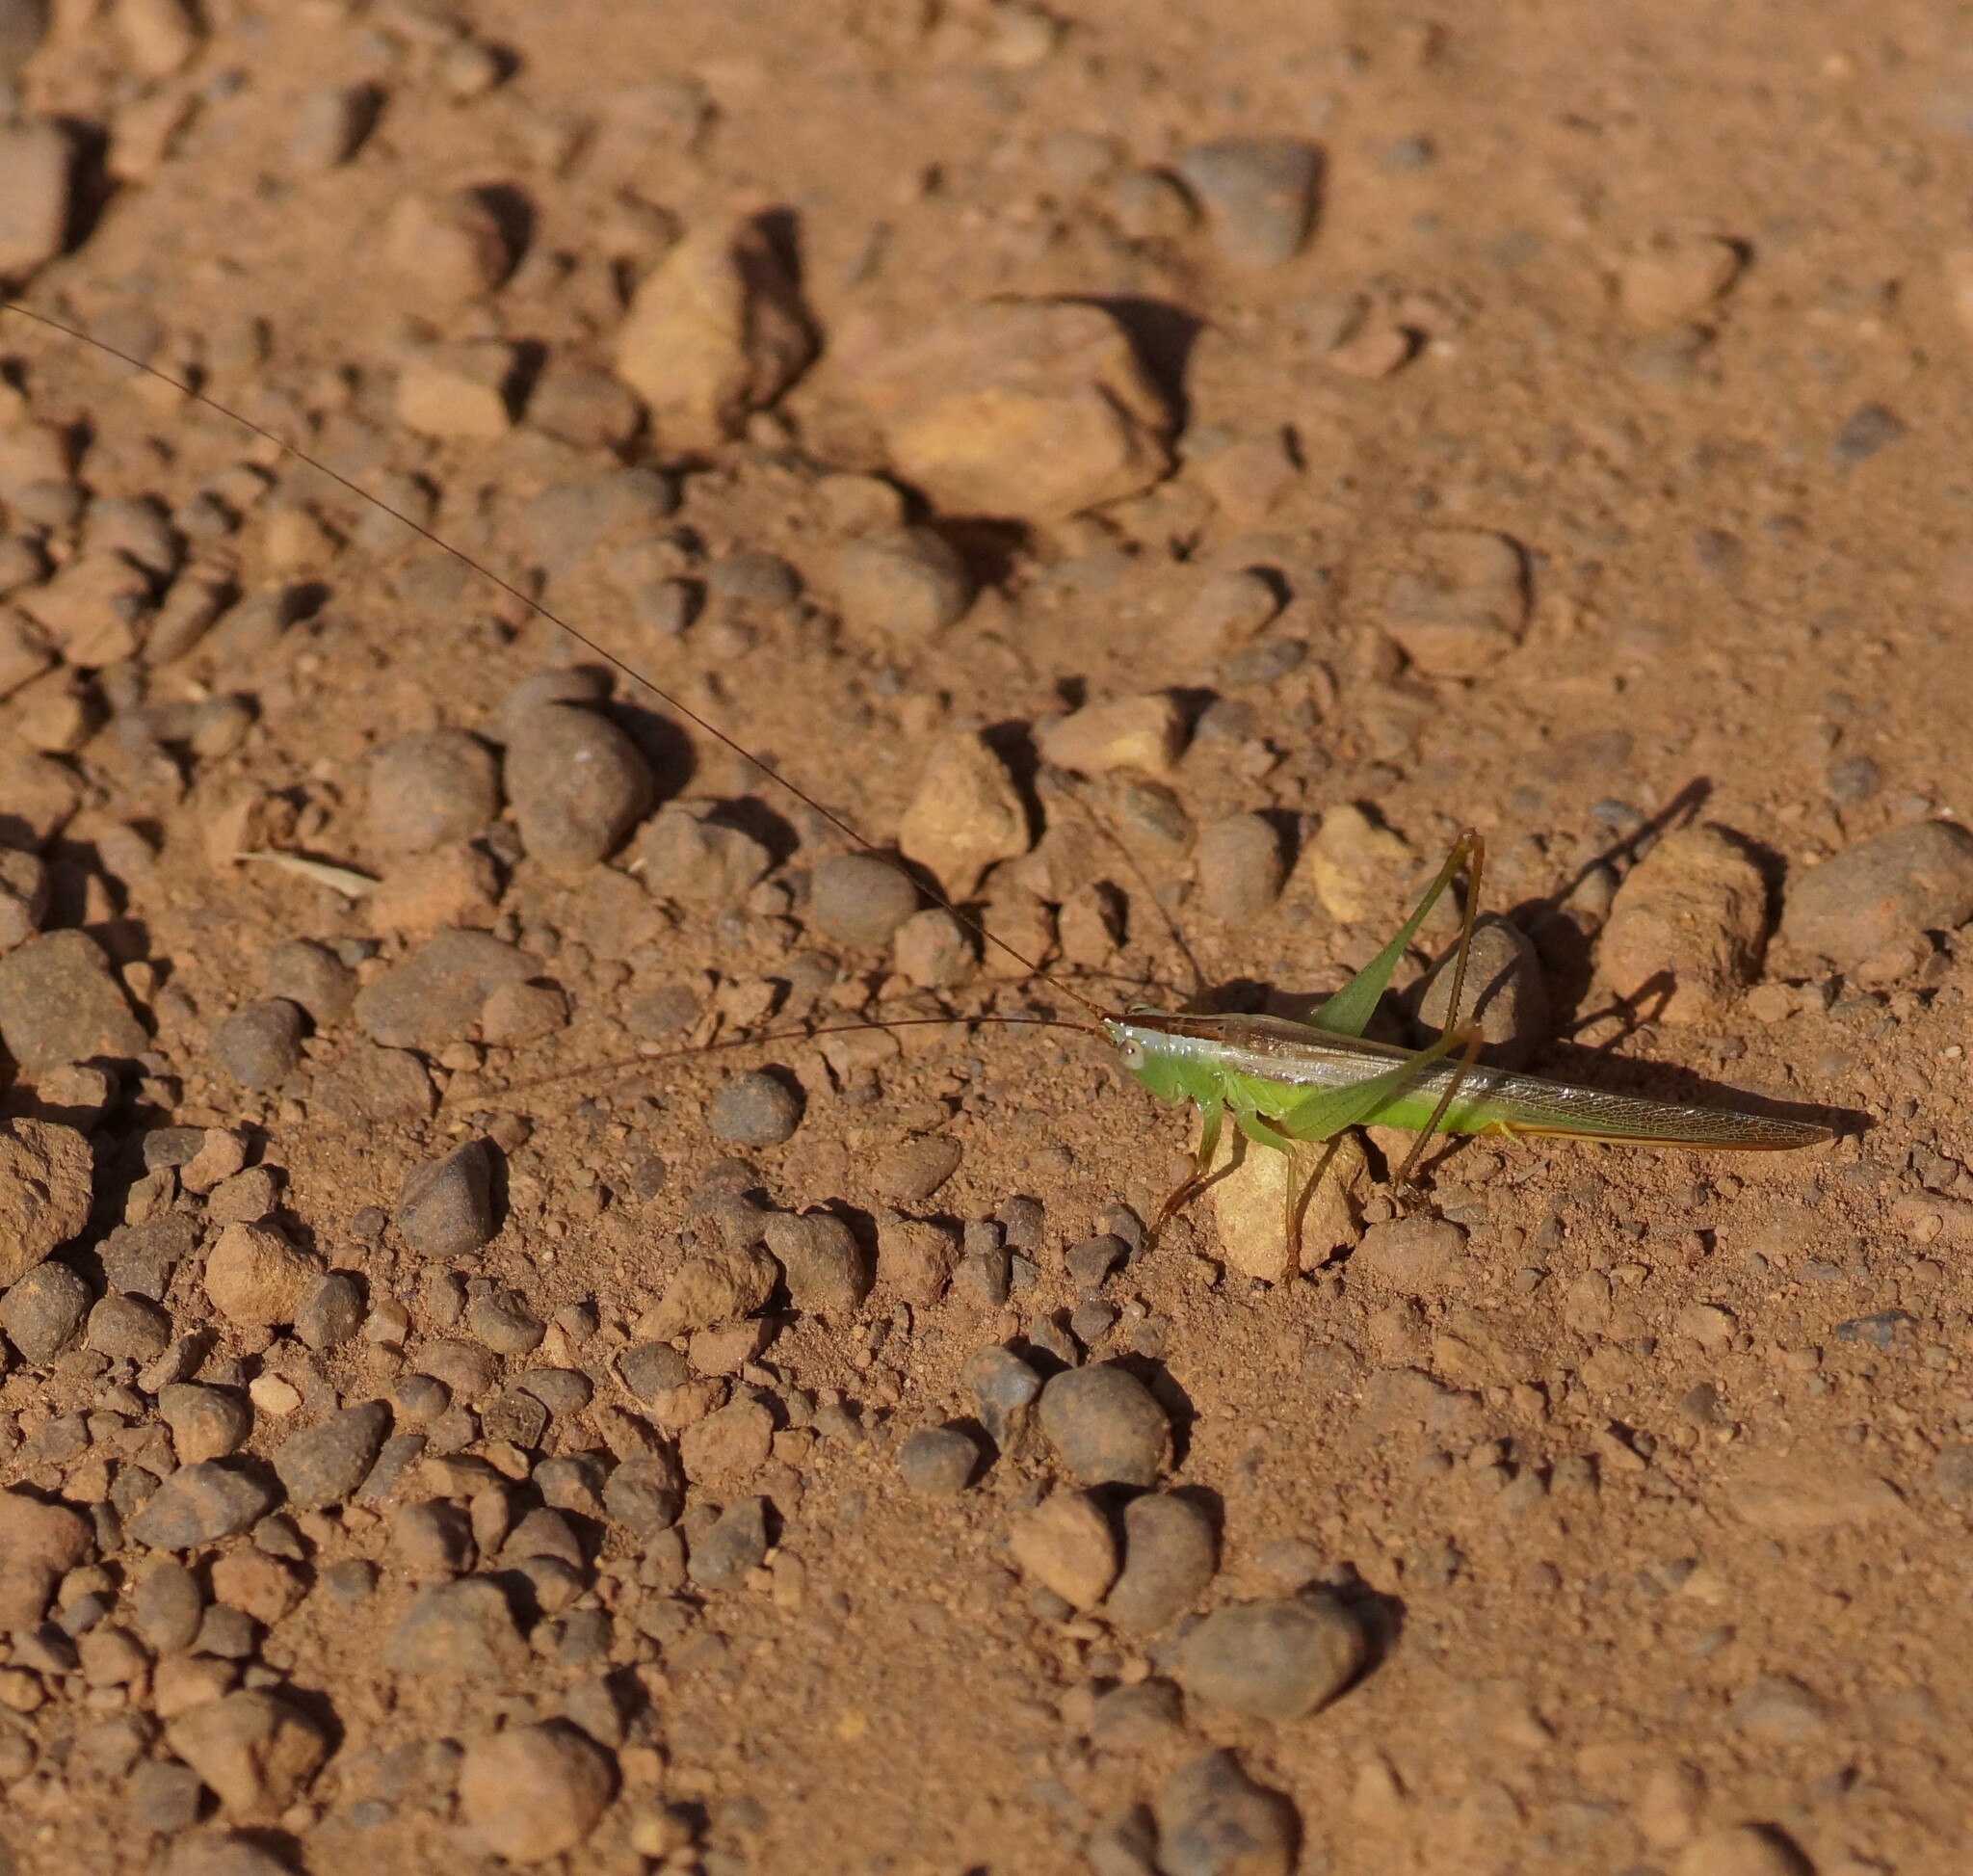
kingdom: Animalia
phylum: Arthropoda
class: Insecta
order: Orthoptera
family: Tettigoniidae
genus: Conocephalus
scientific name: Conocephalus willemsei
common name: Willemse's meadow katydid
